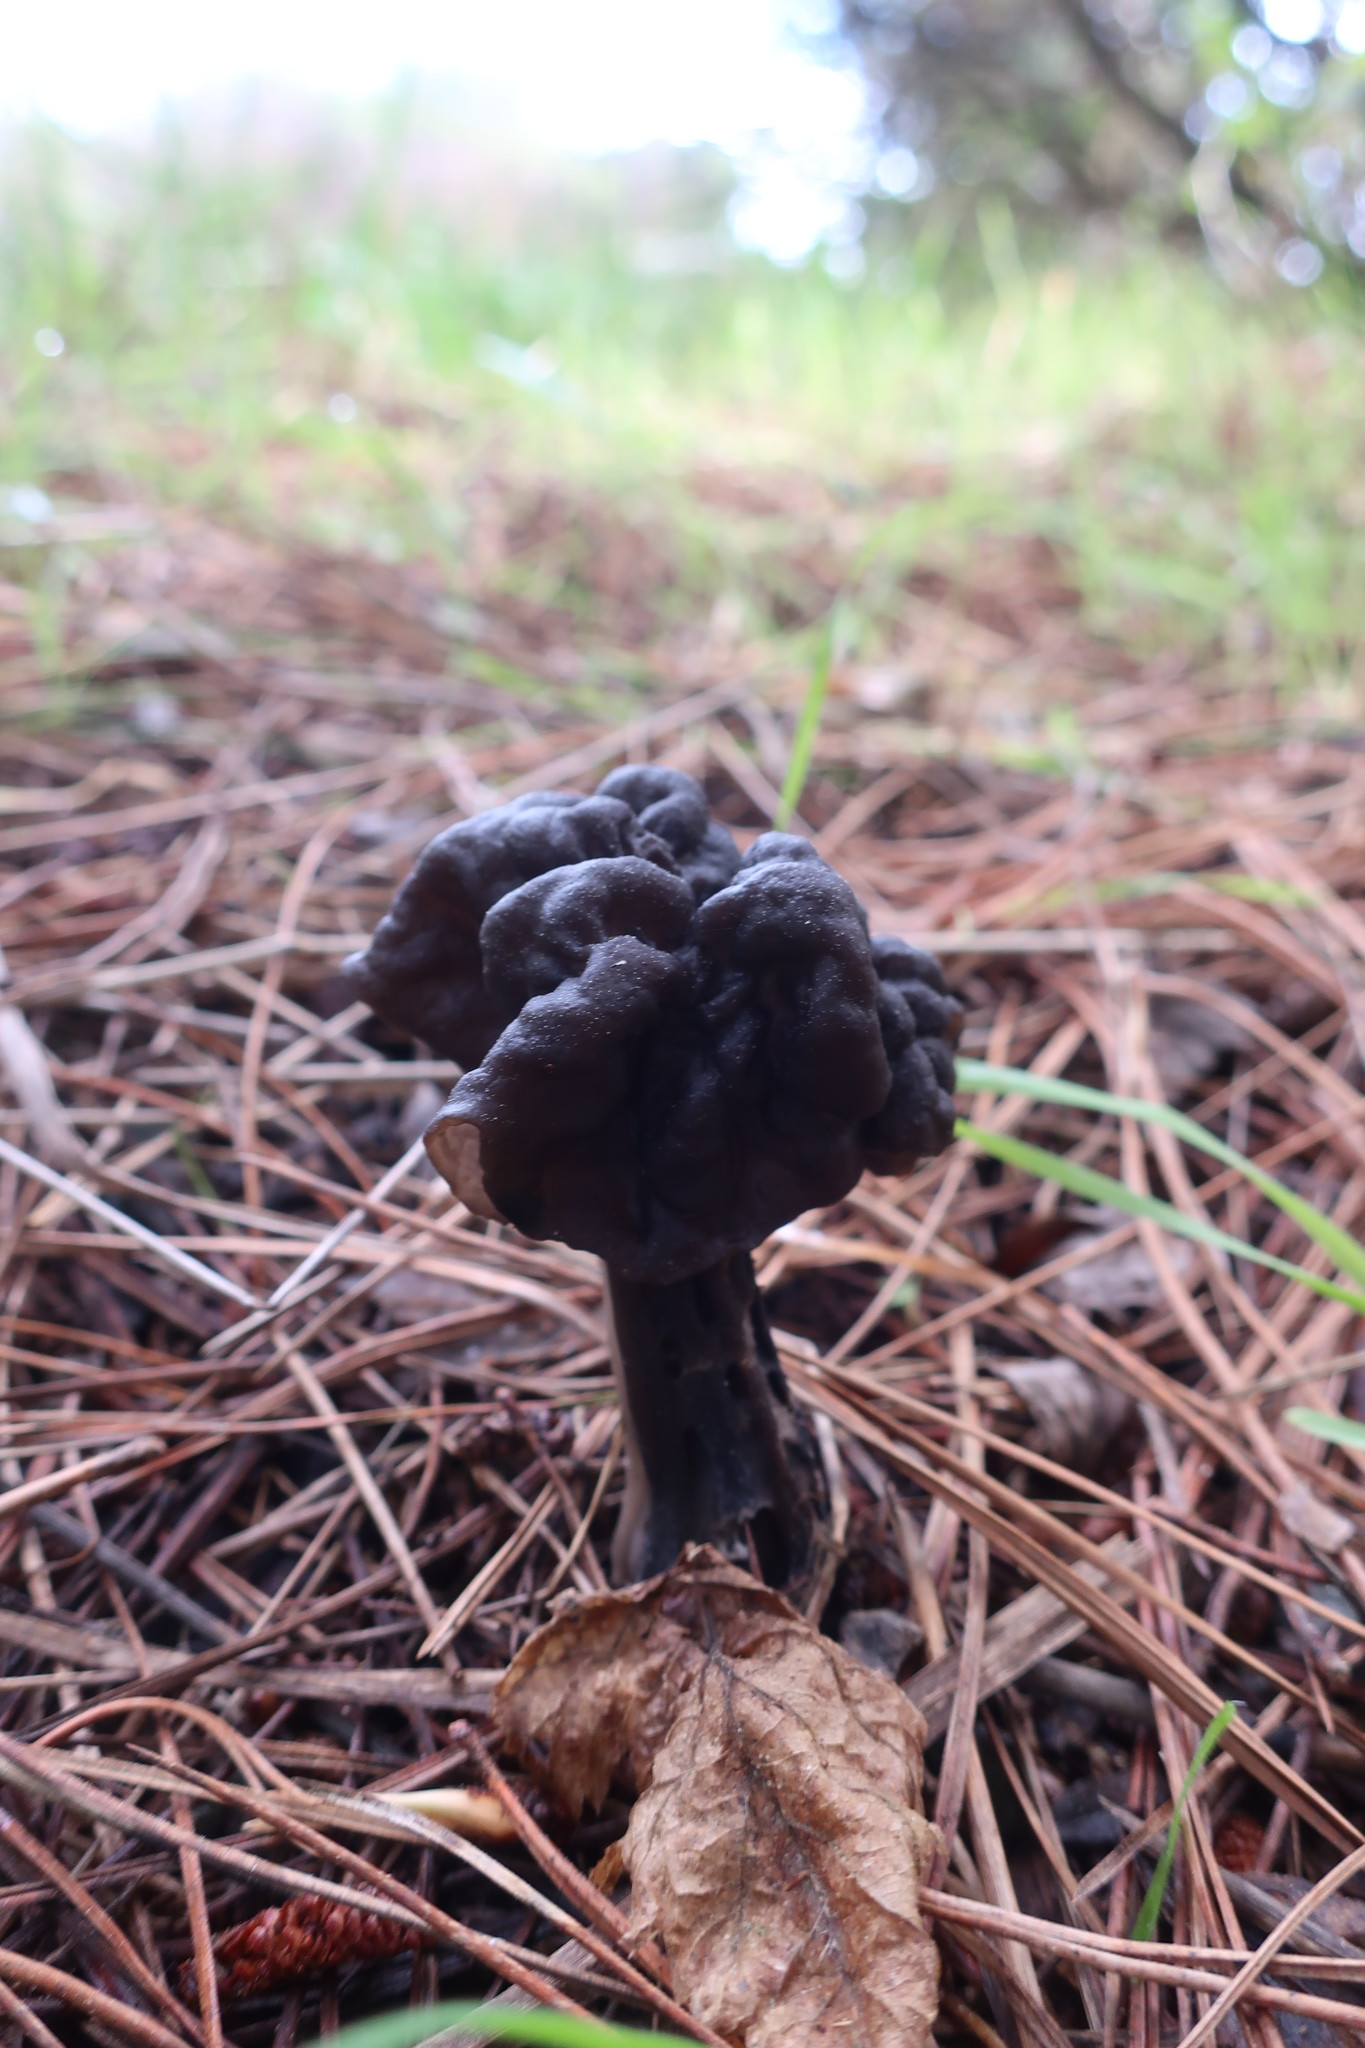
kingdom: Fungi
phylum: Ascomycota
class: Pezizomycetes
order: Pezizales
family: Helvellaceae
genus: Helvella
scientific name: Helvella vespertina
